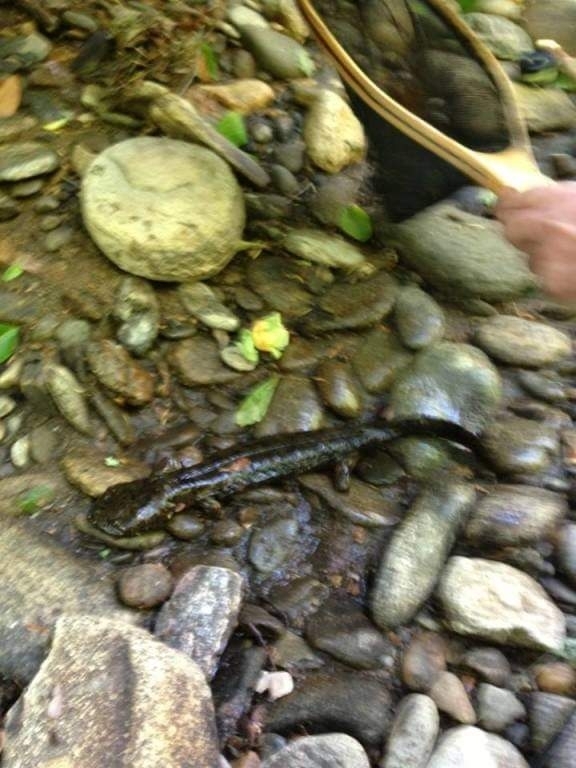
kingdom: Animalia
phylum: Chordata
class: Amphibia
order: Caudata
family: Cryptobranchidae
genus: Cryptobranchus
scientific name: Cryptobranchus alleganiensis
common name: Hellbender
